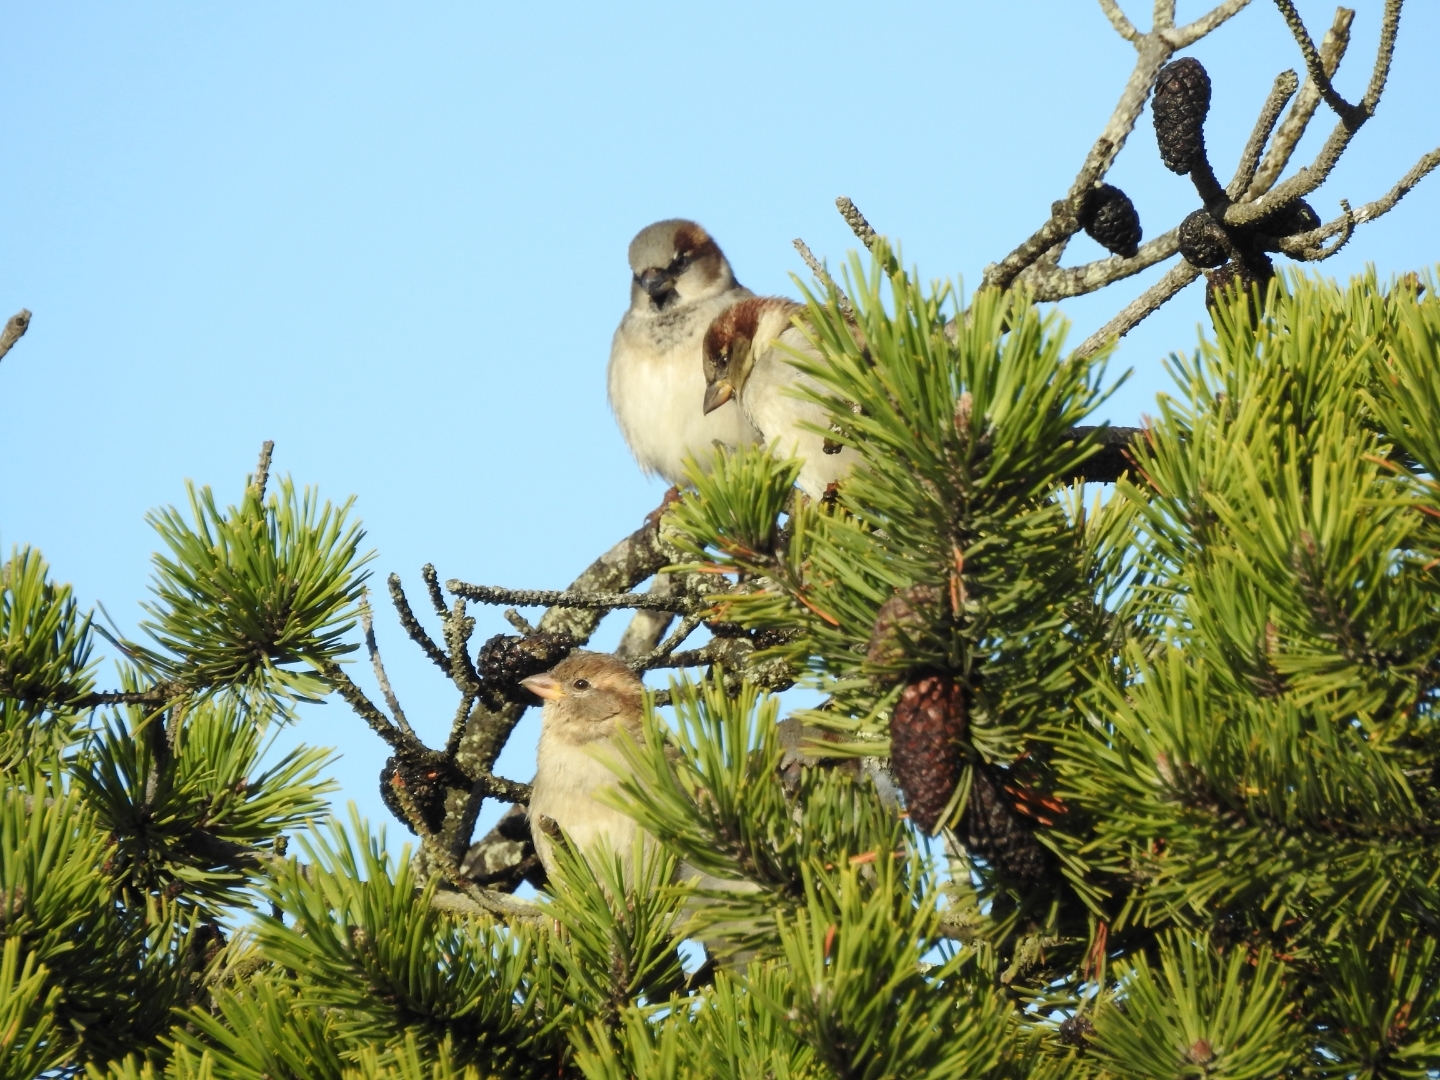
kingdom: Animalia
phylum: Chordata
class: Aves
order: Passeriformes
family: Passeridae
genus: Passer
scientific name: Passer domesticus
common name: House sparrow
